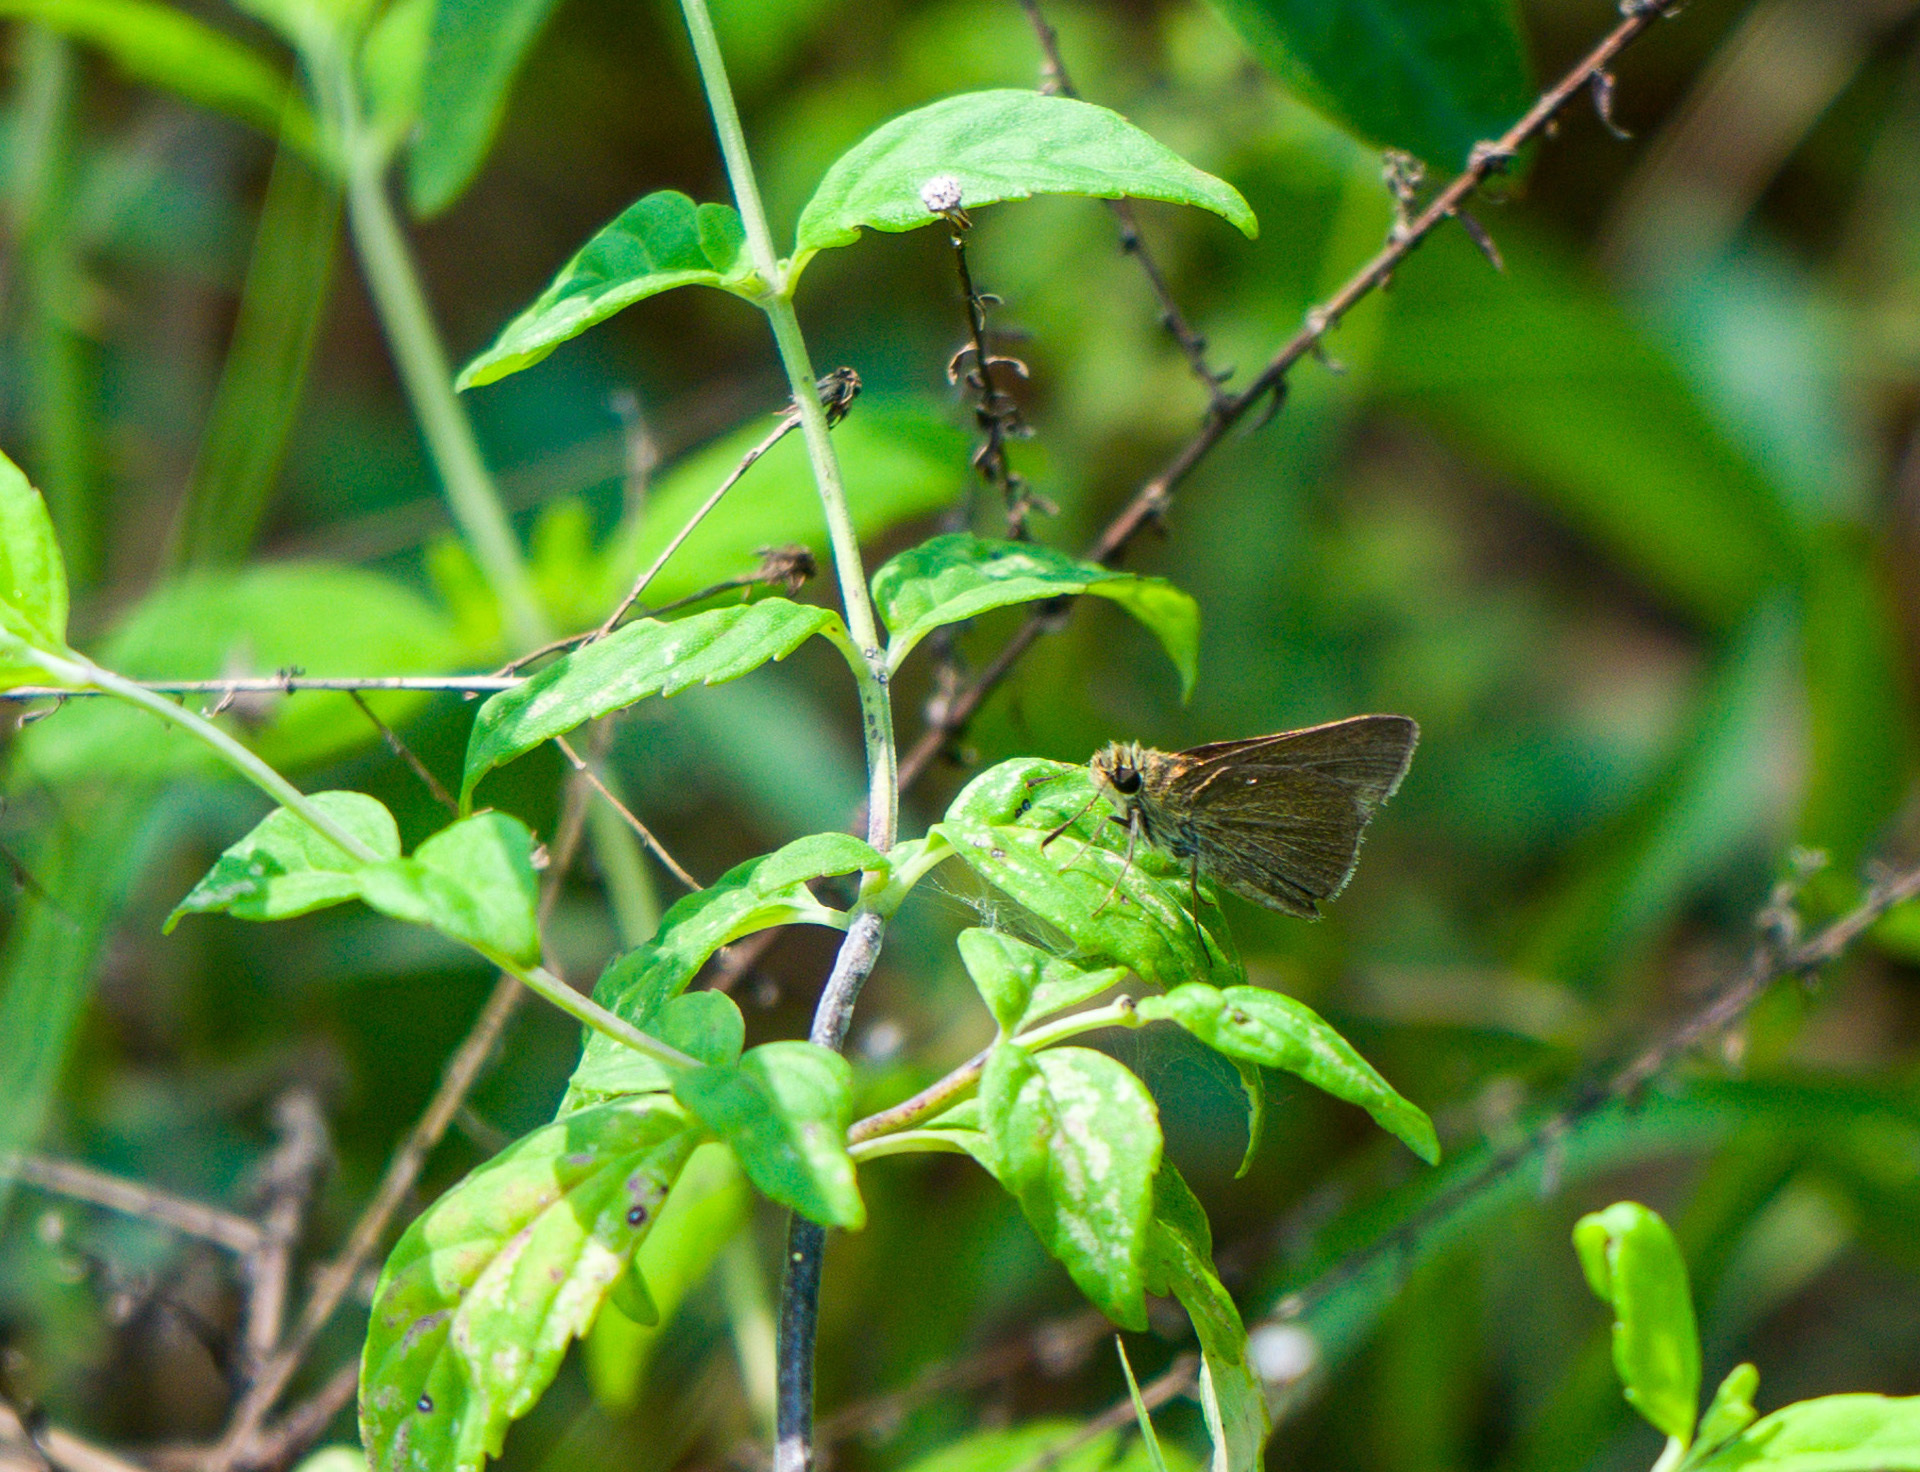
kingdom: Animalia
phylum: Arthropoda
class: Insecta
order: Lepidoptera
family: Hesperiidae
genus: Nastra
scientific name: Nastra lherminier
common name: Swarthy skipper
